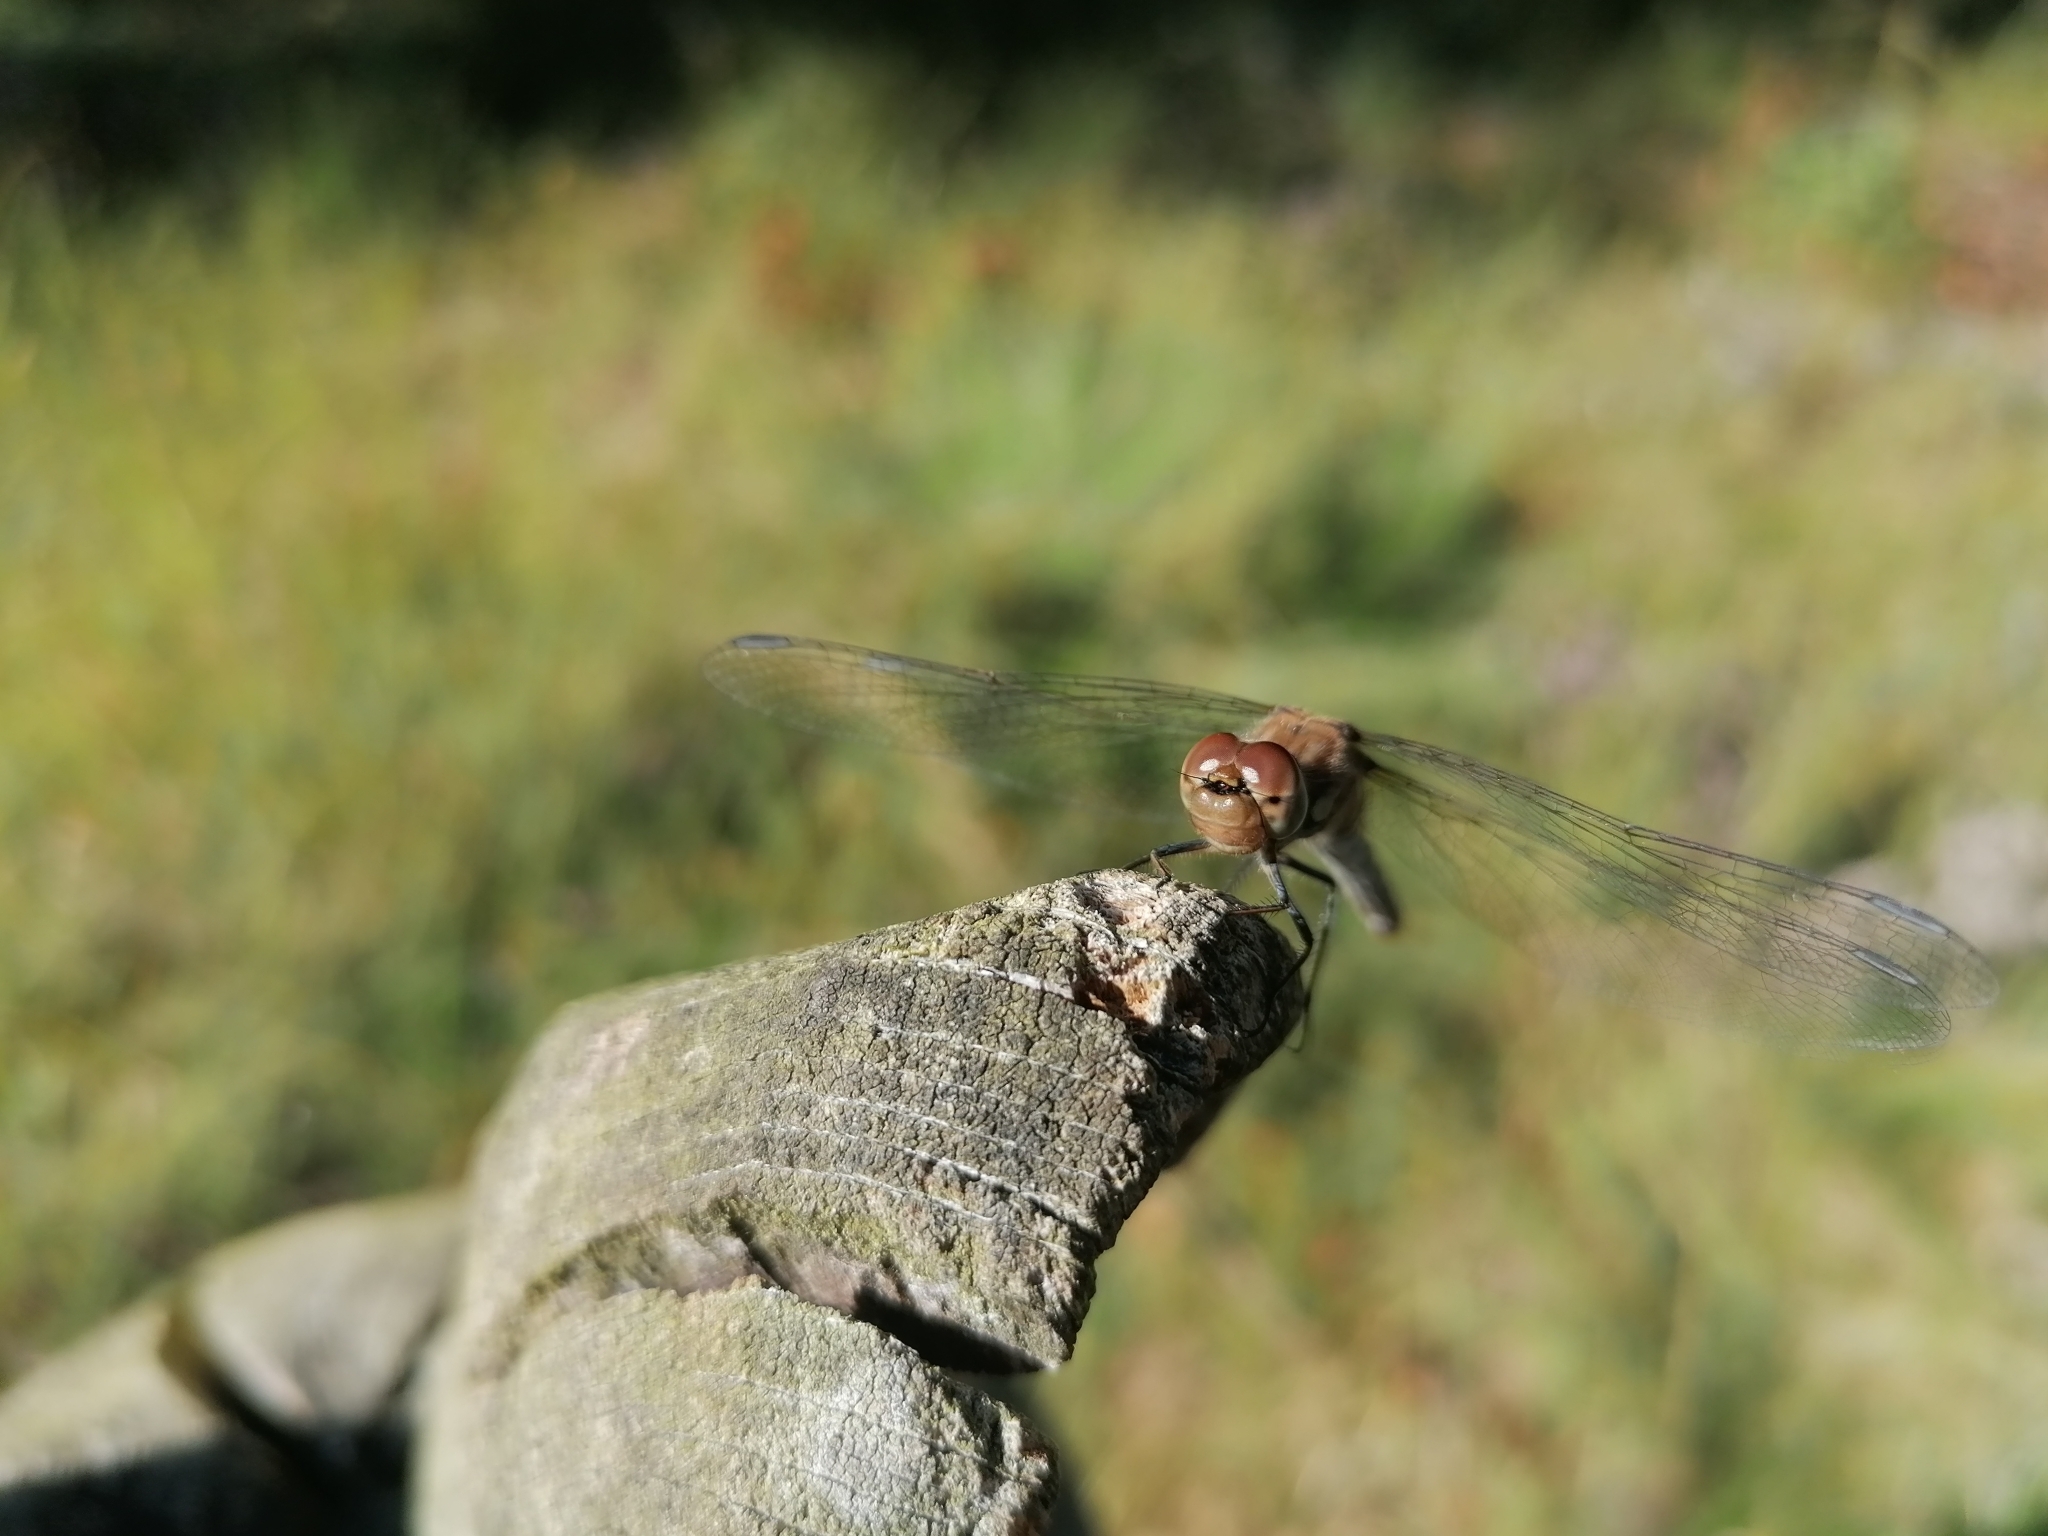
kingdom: Animalia
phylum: Arthropoda
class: Insecta
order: Odonata
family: Libellulidae
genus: Sympetrum
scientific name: Sympetrum striolatum
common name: Common darter
